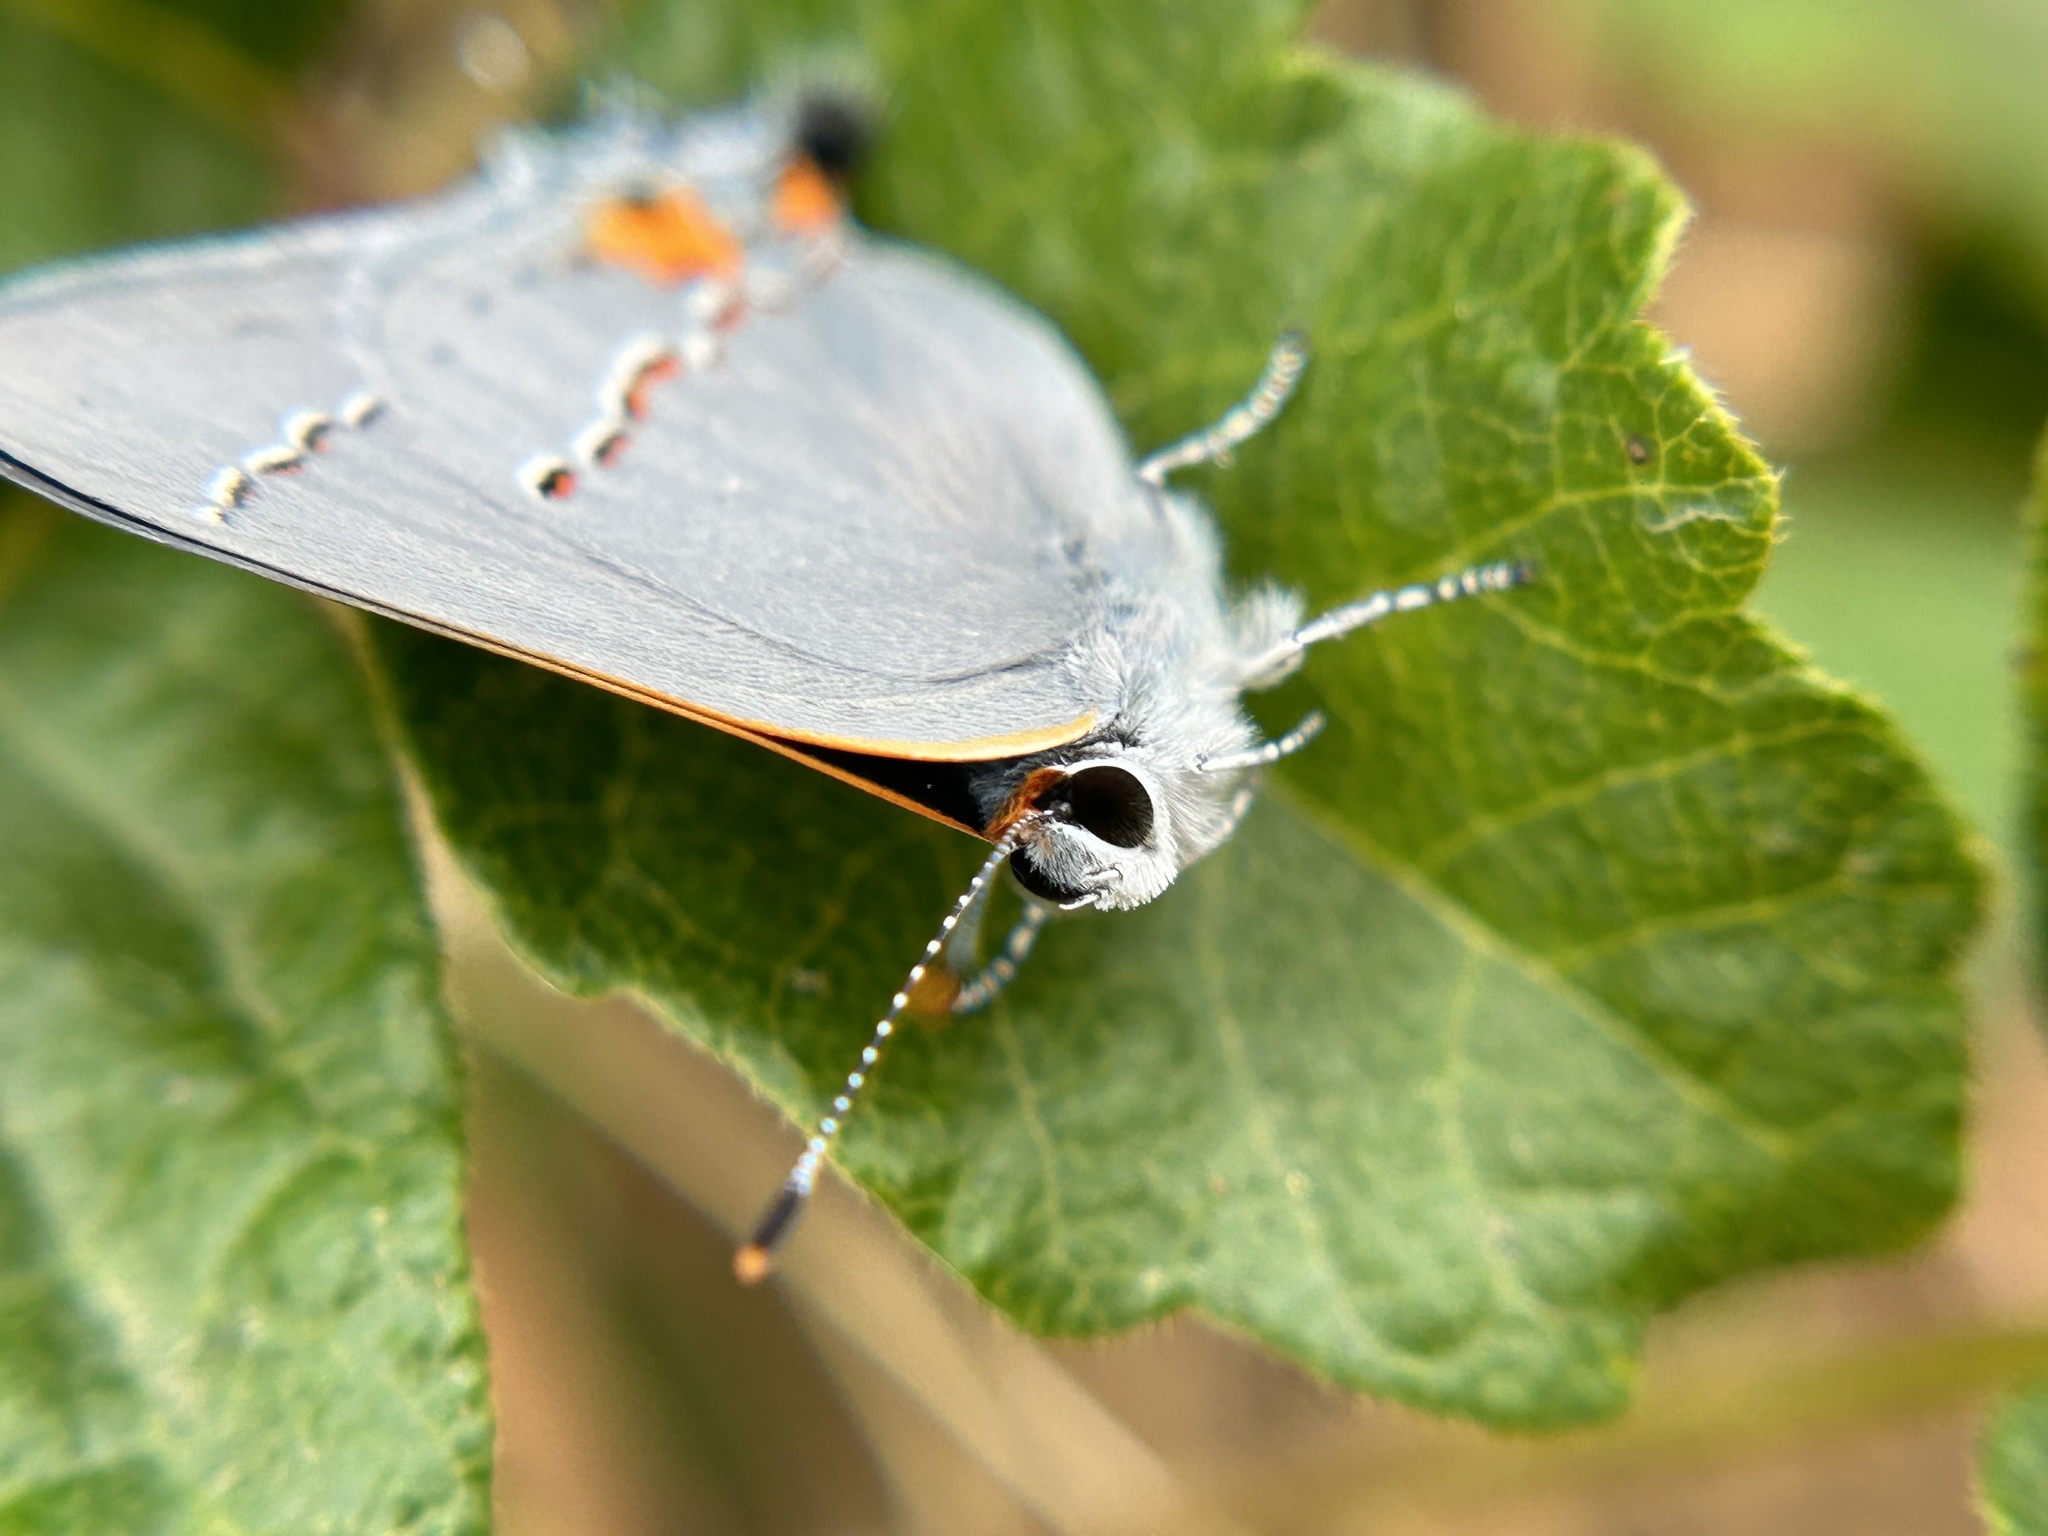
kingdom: Animalia
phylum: Arthropoda
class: Insecta
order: Lepidoptera
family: Lycaenidae
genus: Strymon
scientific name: Strymon melinus
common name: Gray hairstreak
